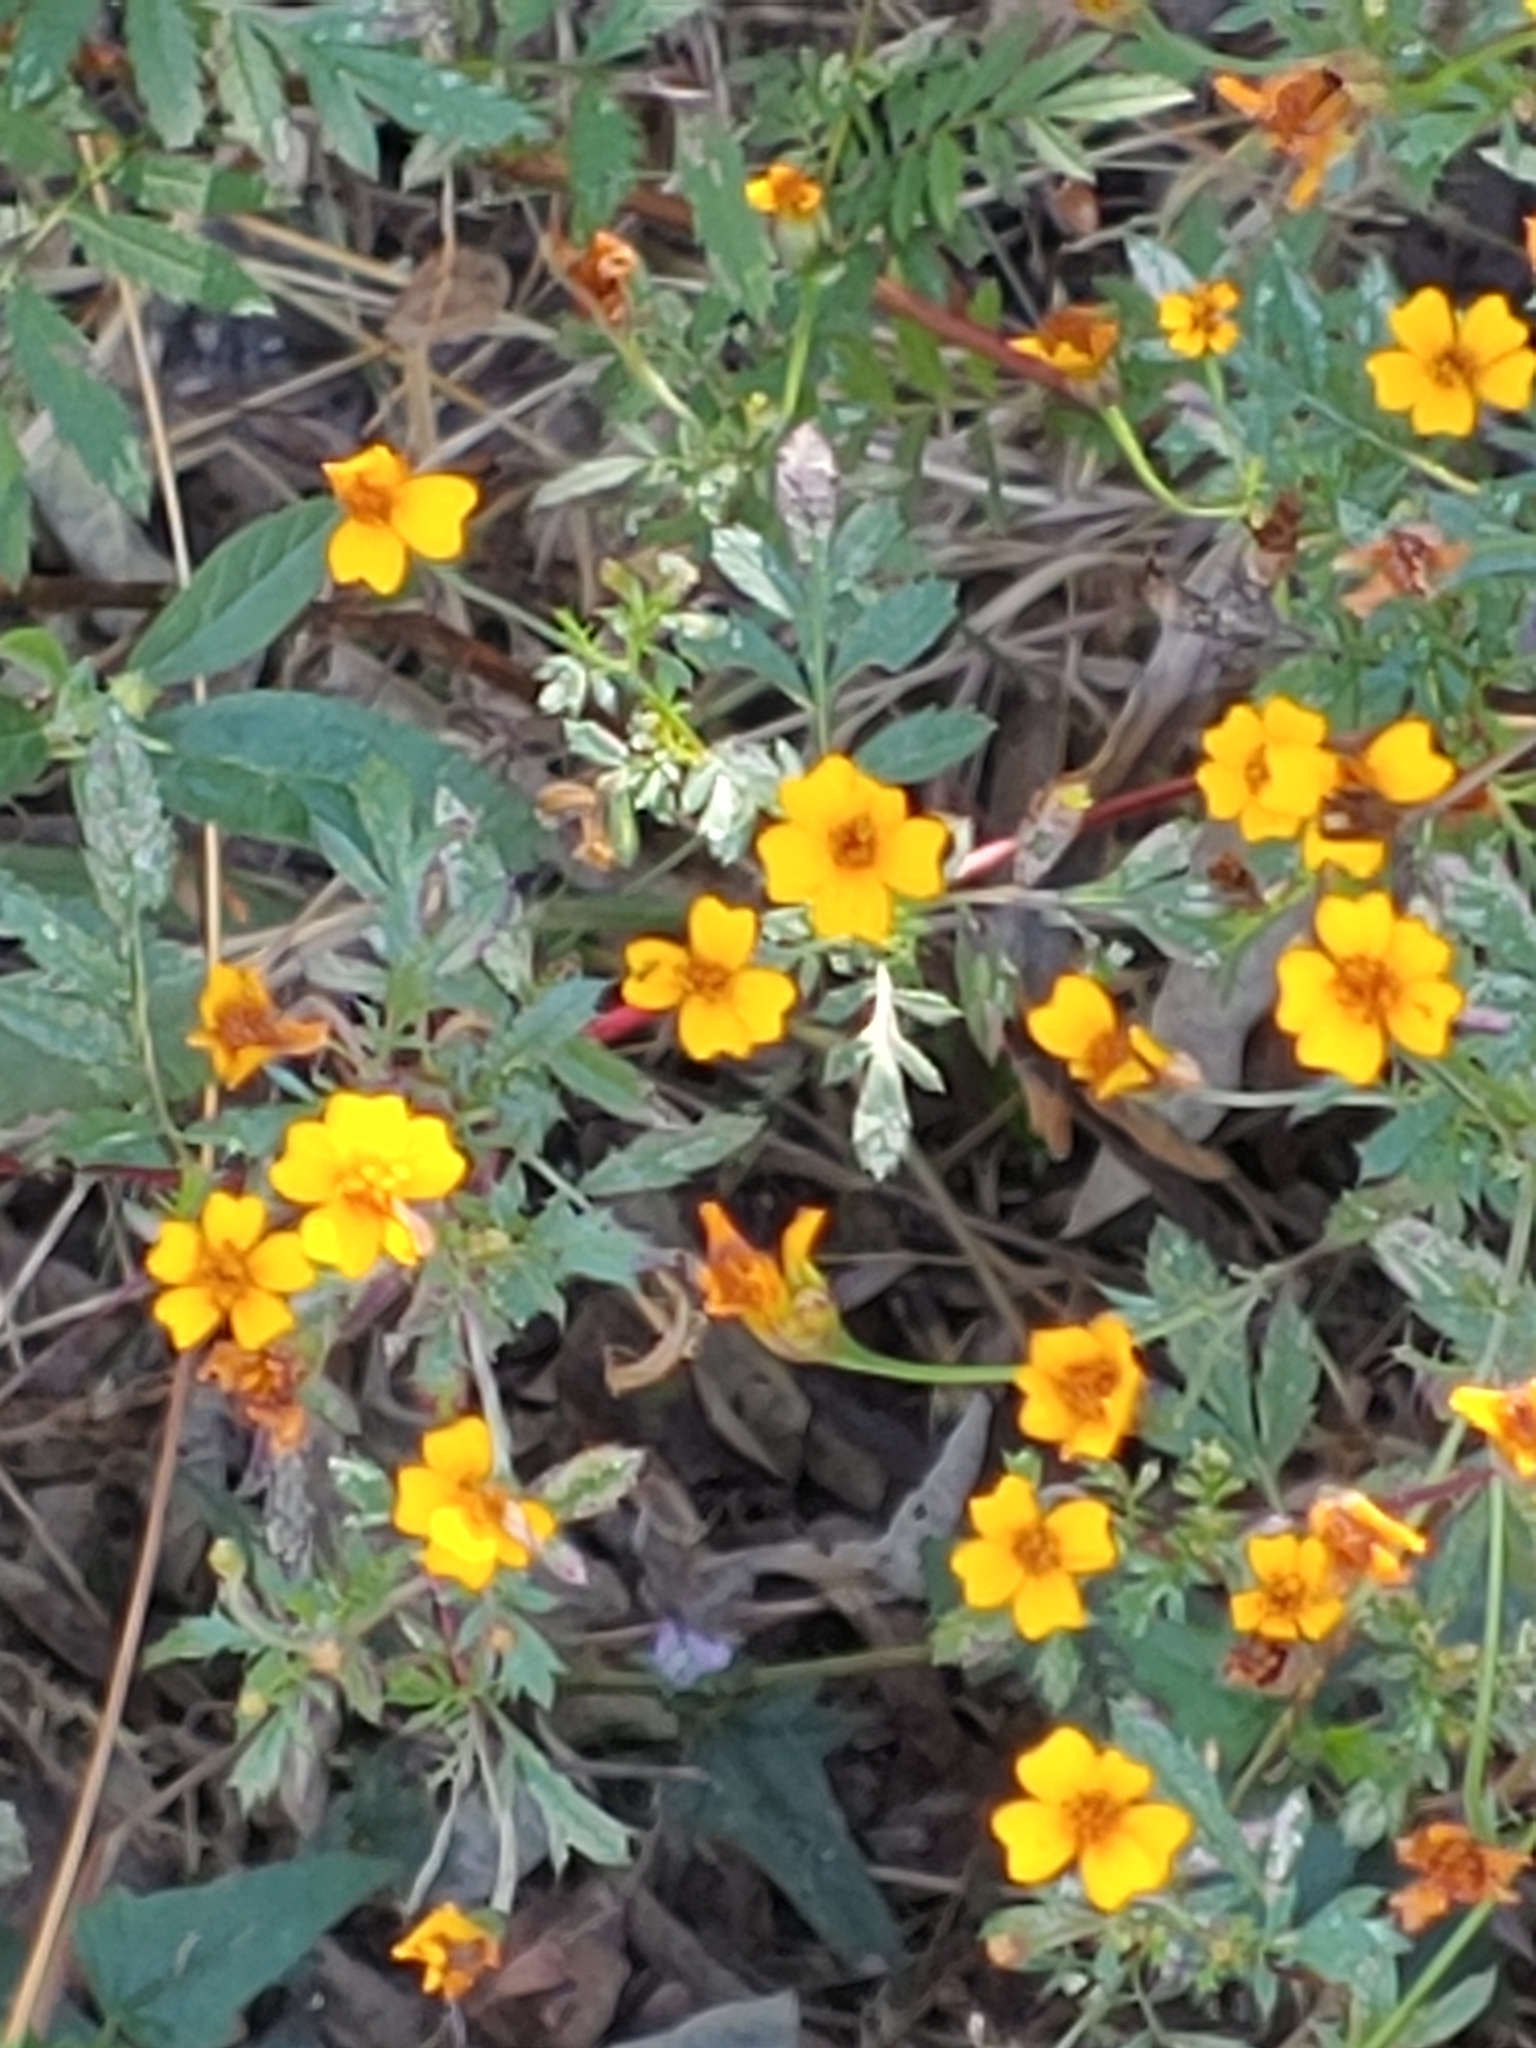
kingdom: Plantae
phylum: Tracheophyta
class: Magnoliopsida
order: Asterales
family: Asteraceae
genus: Tagetes
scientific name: Tagetes tenuifolia
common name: Signet marigold
